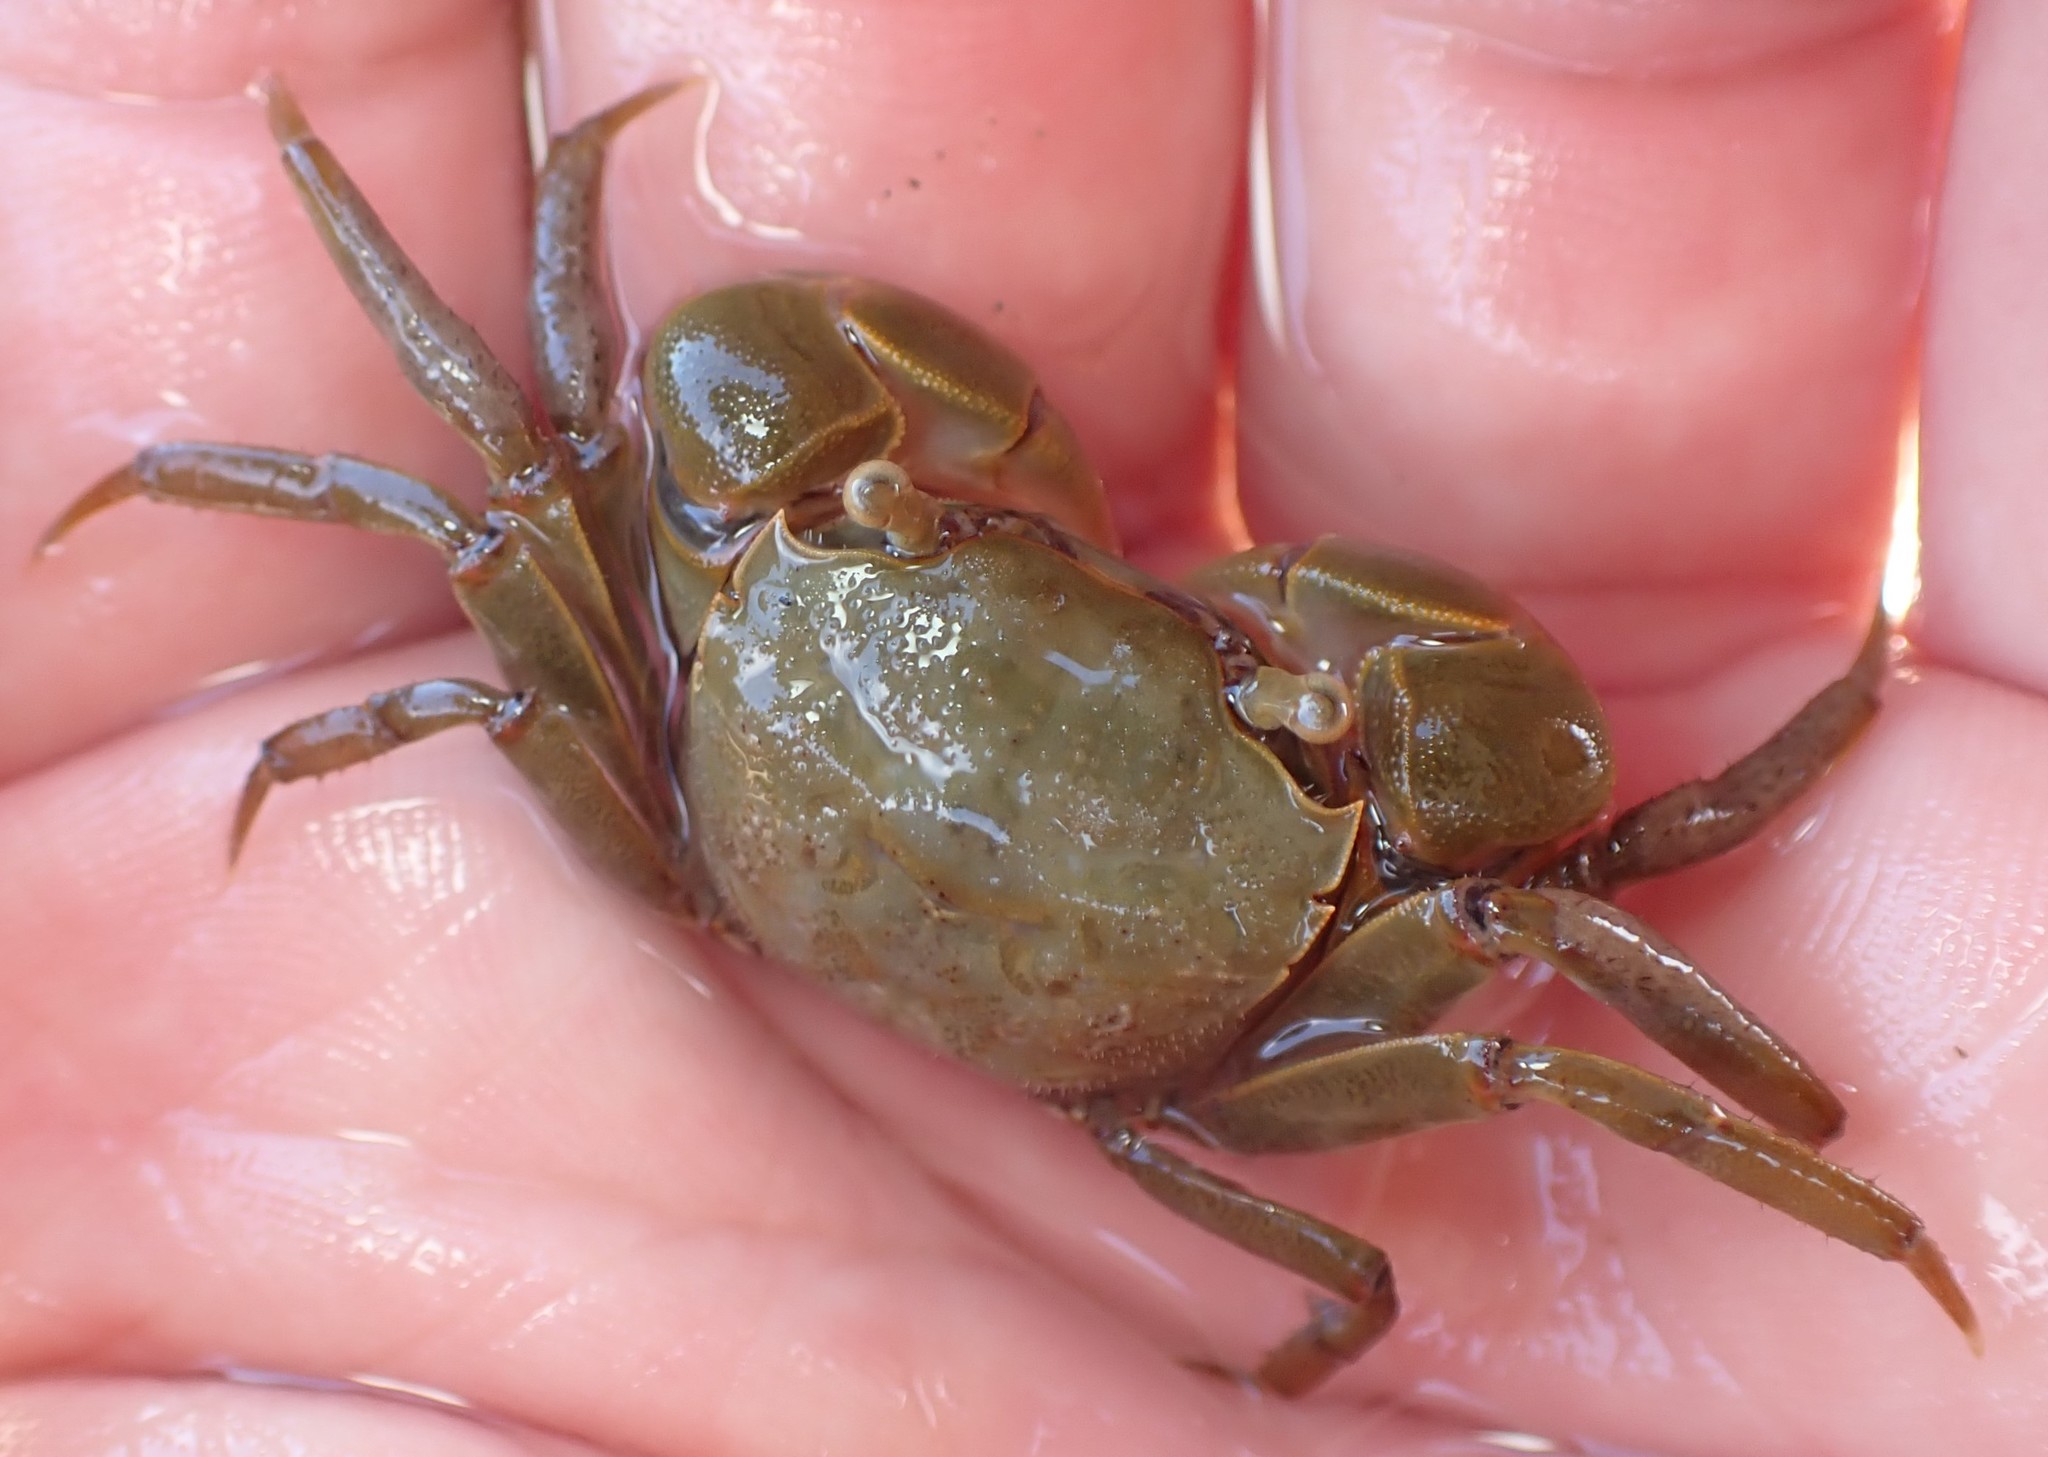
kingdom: Animalia
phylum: Arthropoda
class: Malacostraca
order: Decapoda
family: Varunidae
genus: Austrohelice
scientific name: Austrohelice crassa
